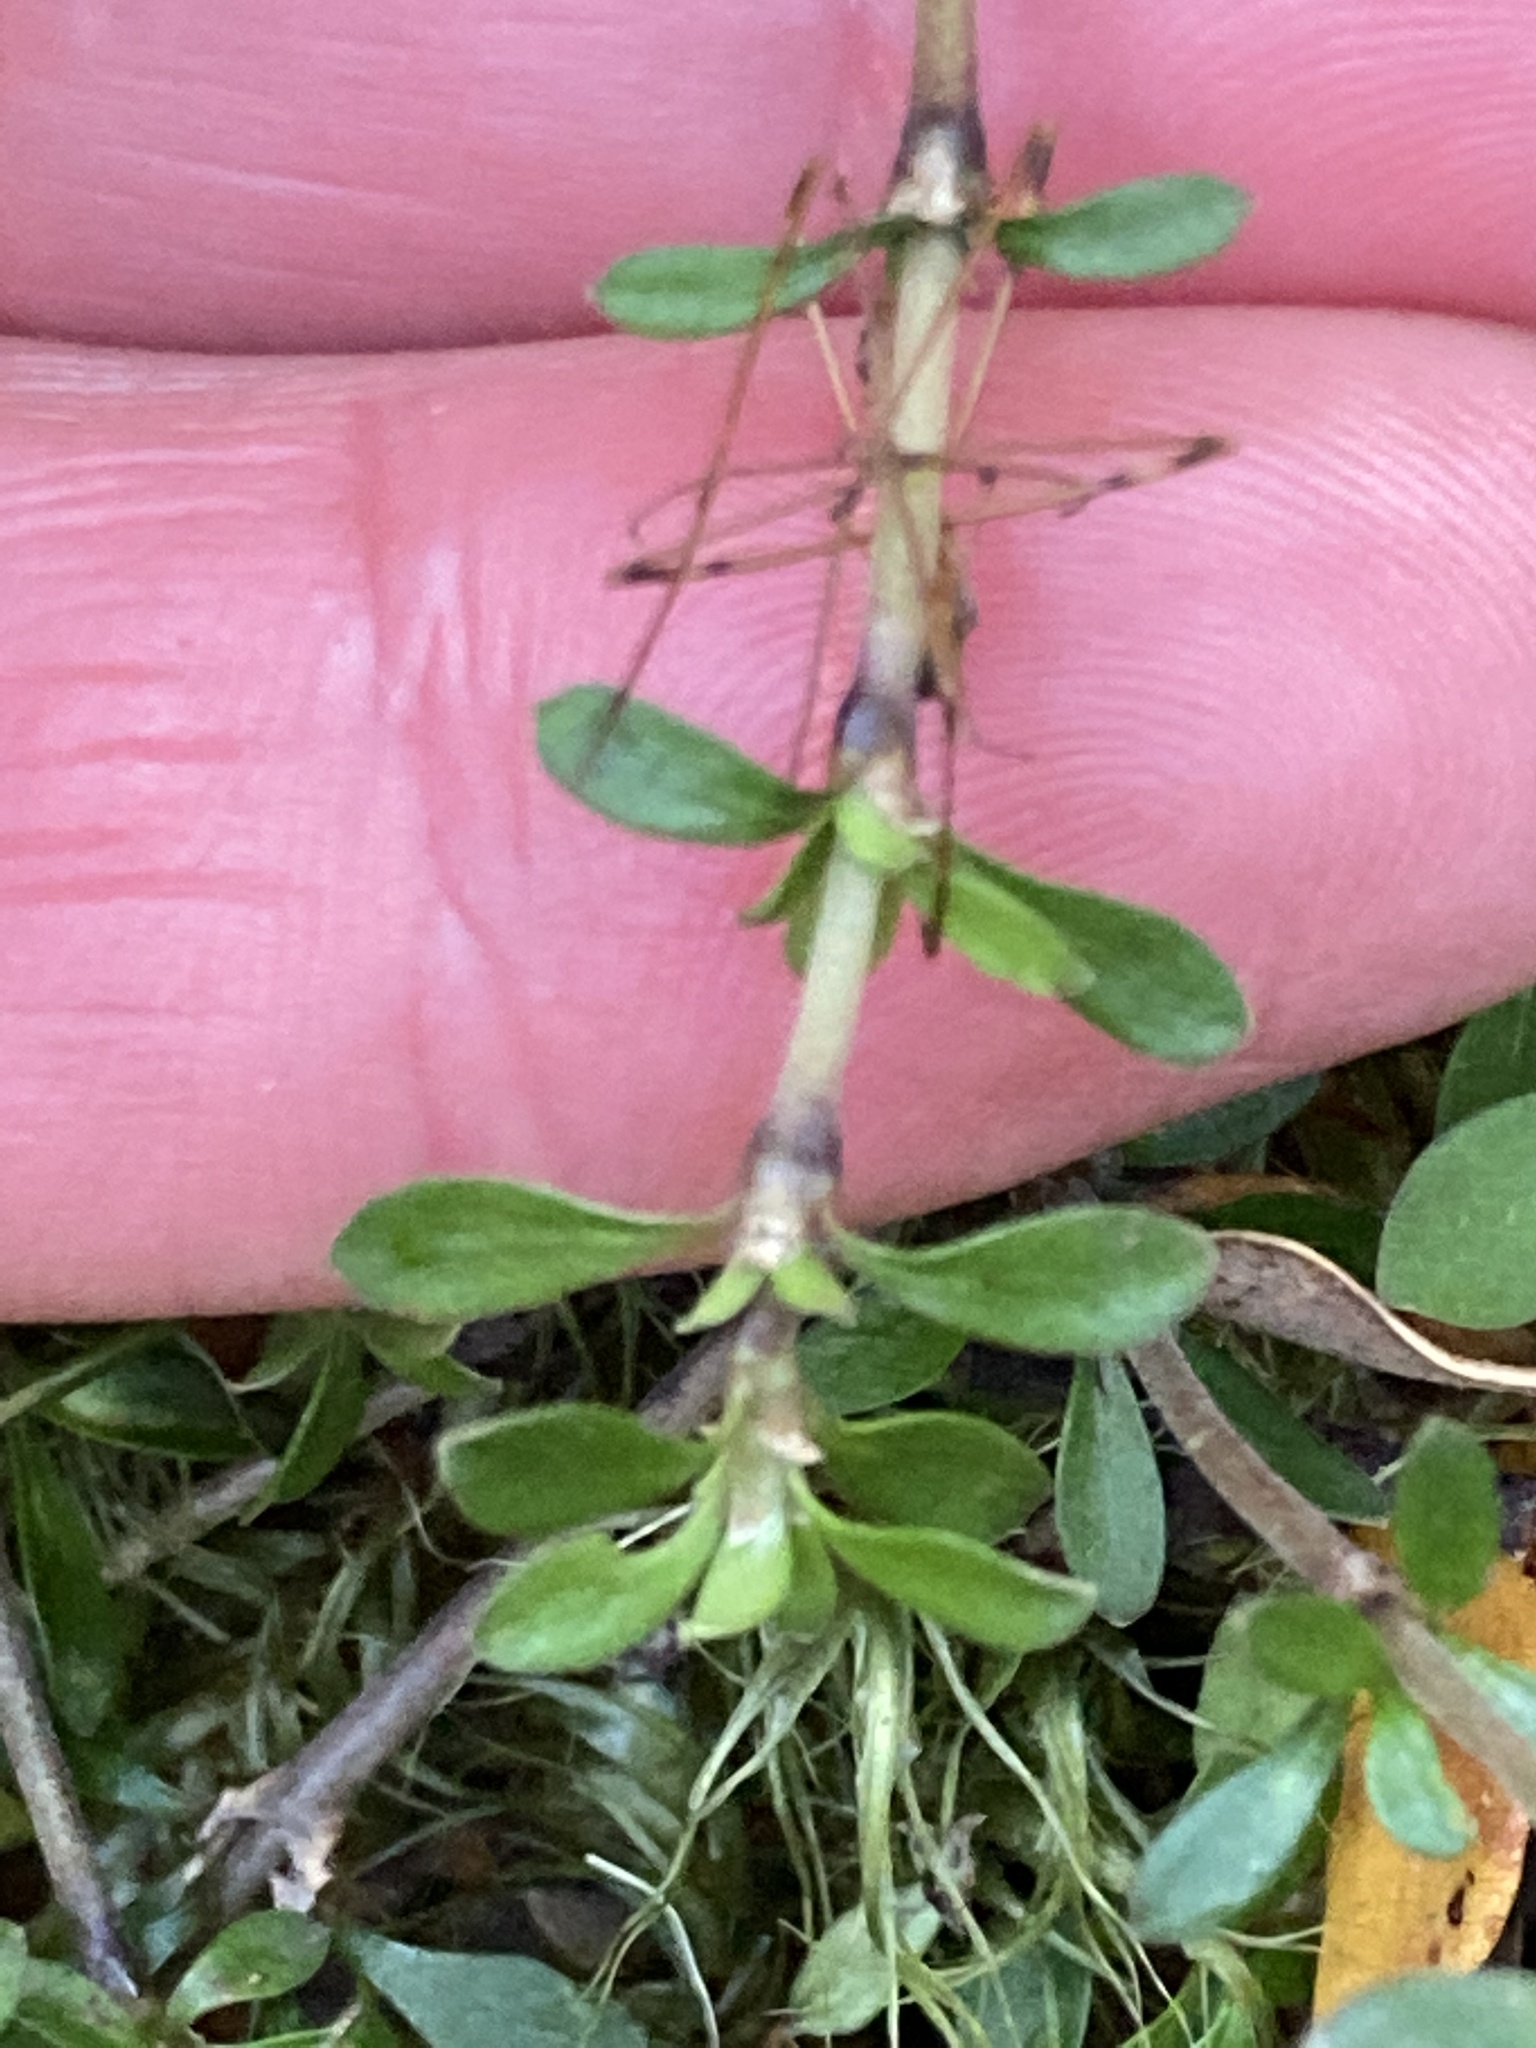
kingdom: Plantae
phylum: Tracheophyta
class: Magnoliopsida
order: Gentianales
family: Rubiaceae
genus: Coprosma
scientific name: Coprosma depressa
